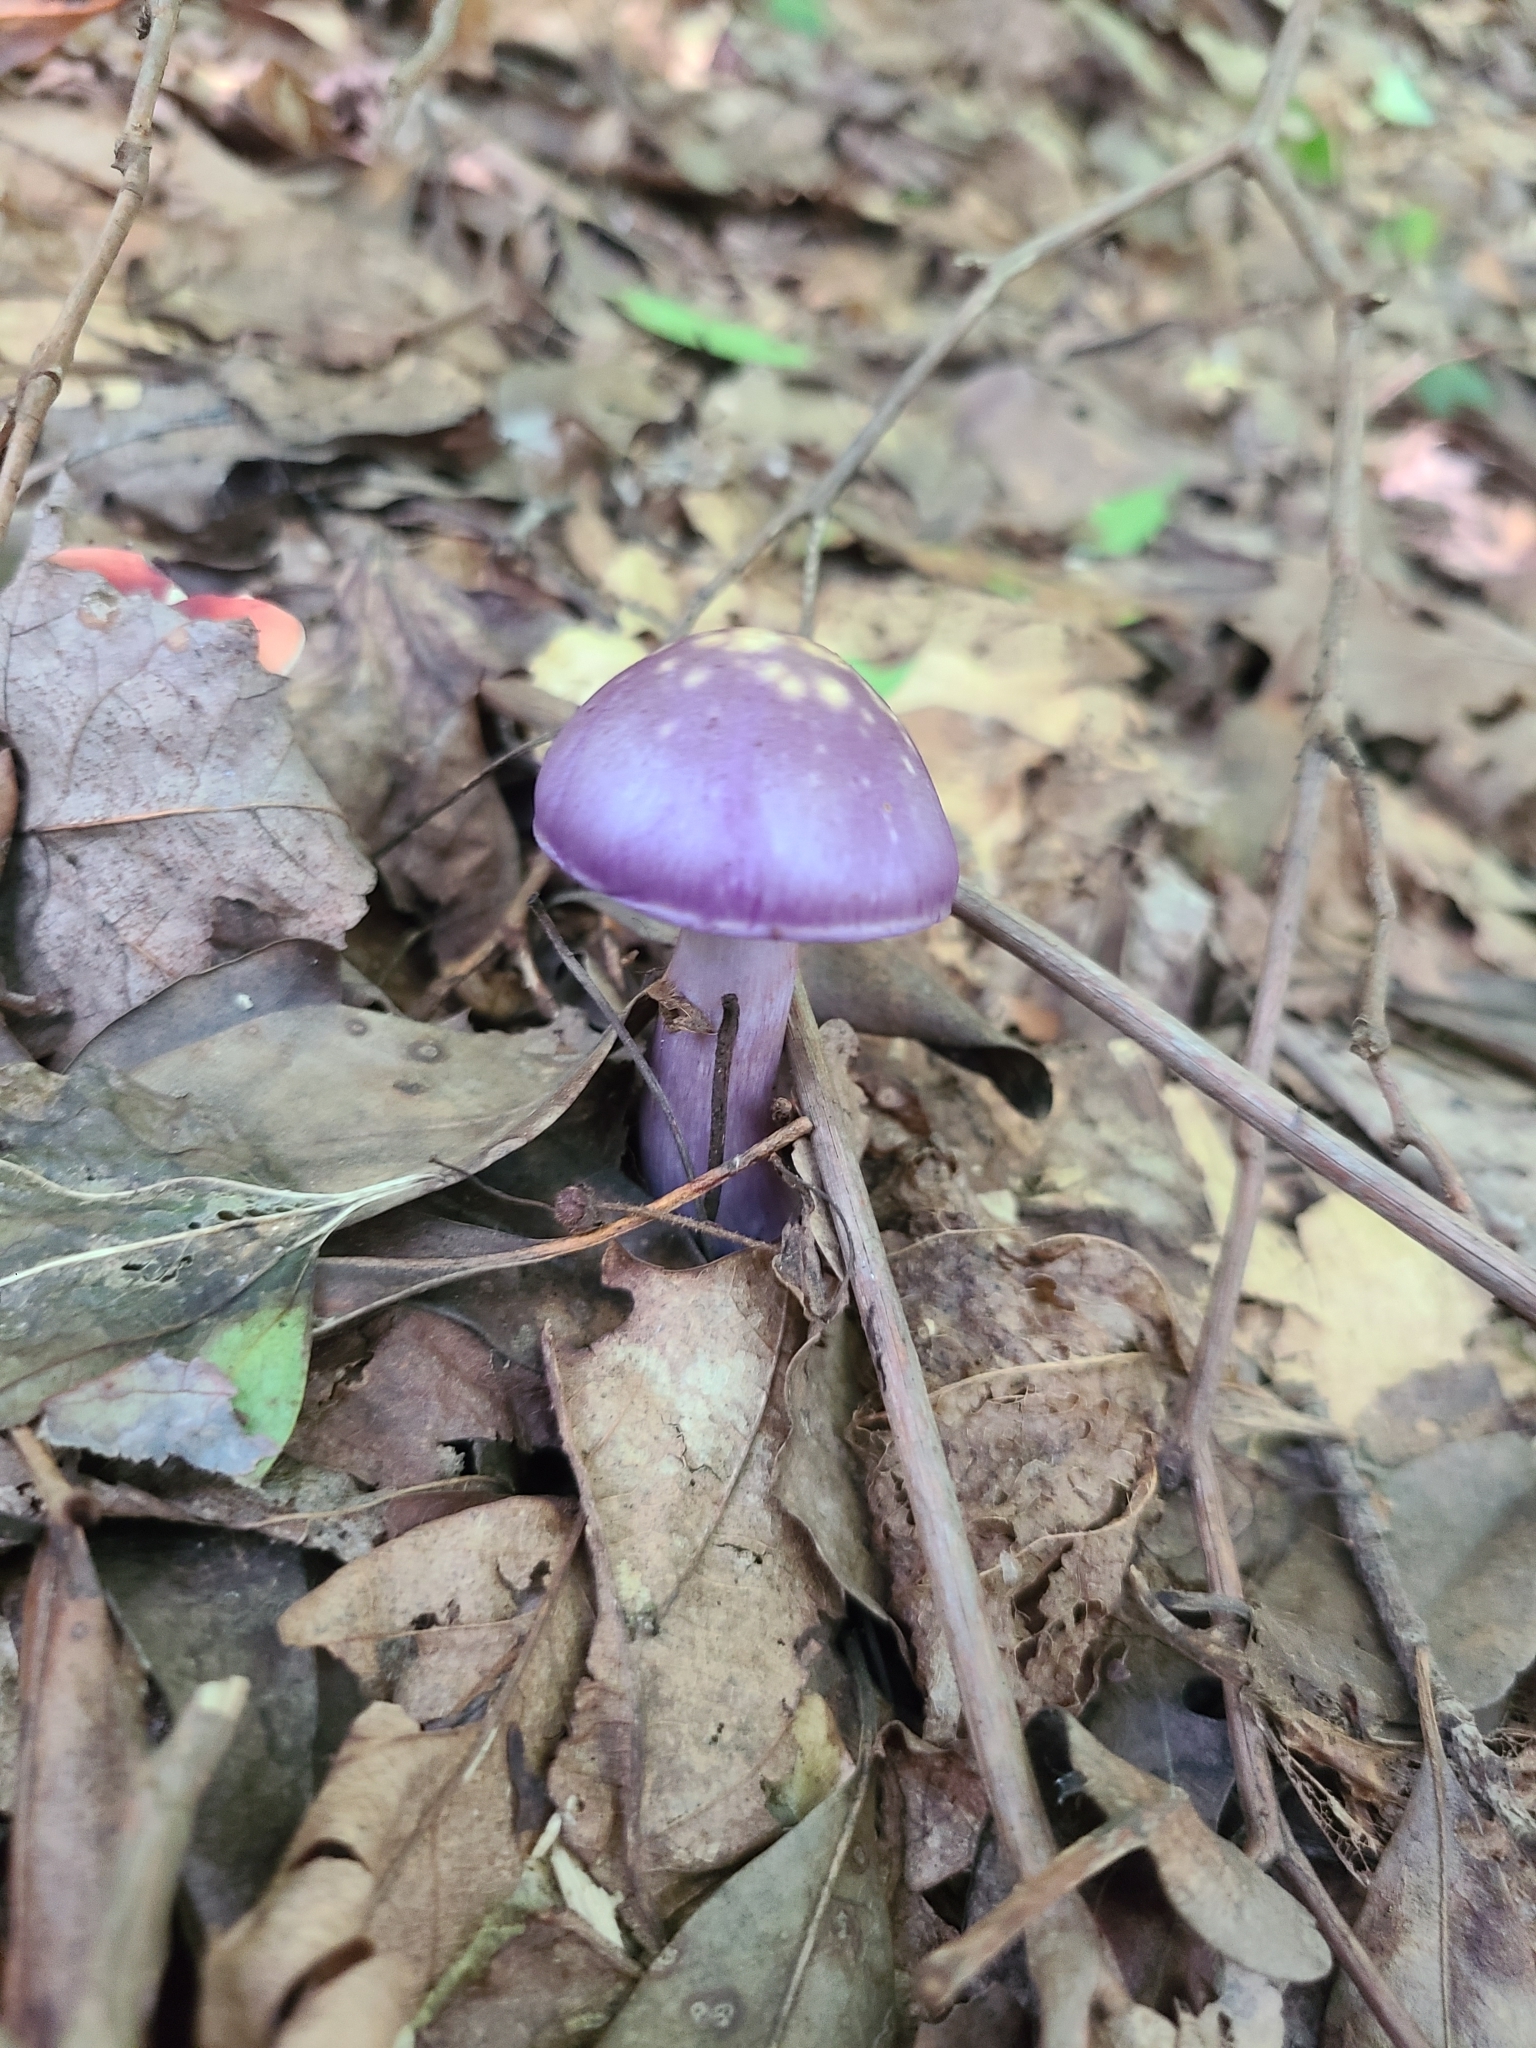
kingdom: Fungi
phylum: Basidiomycota
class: Agaricomycetes
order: Agaricales
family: Cortinariaceae
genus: Cortinarius
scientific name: Cortinarius iodes
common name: Viscid violet cort
